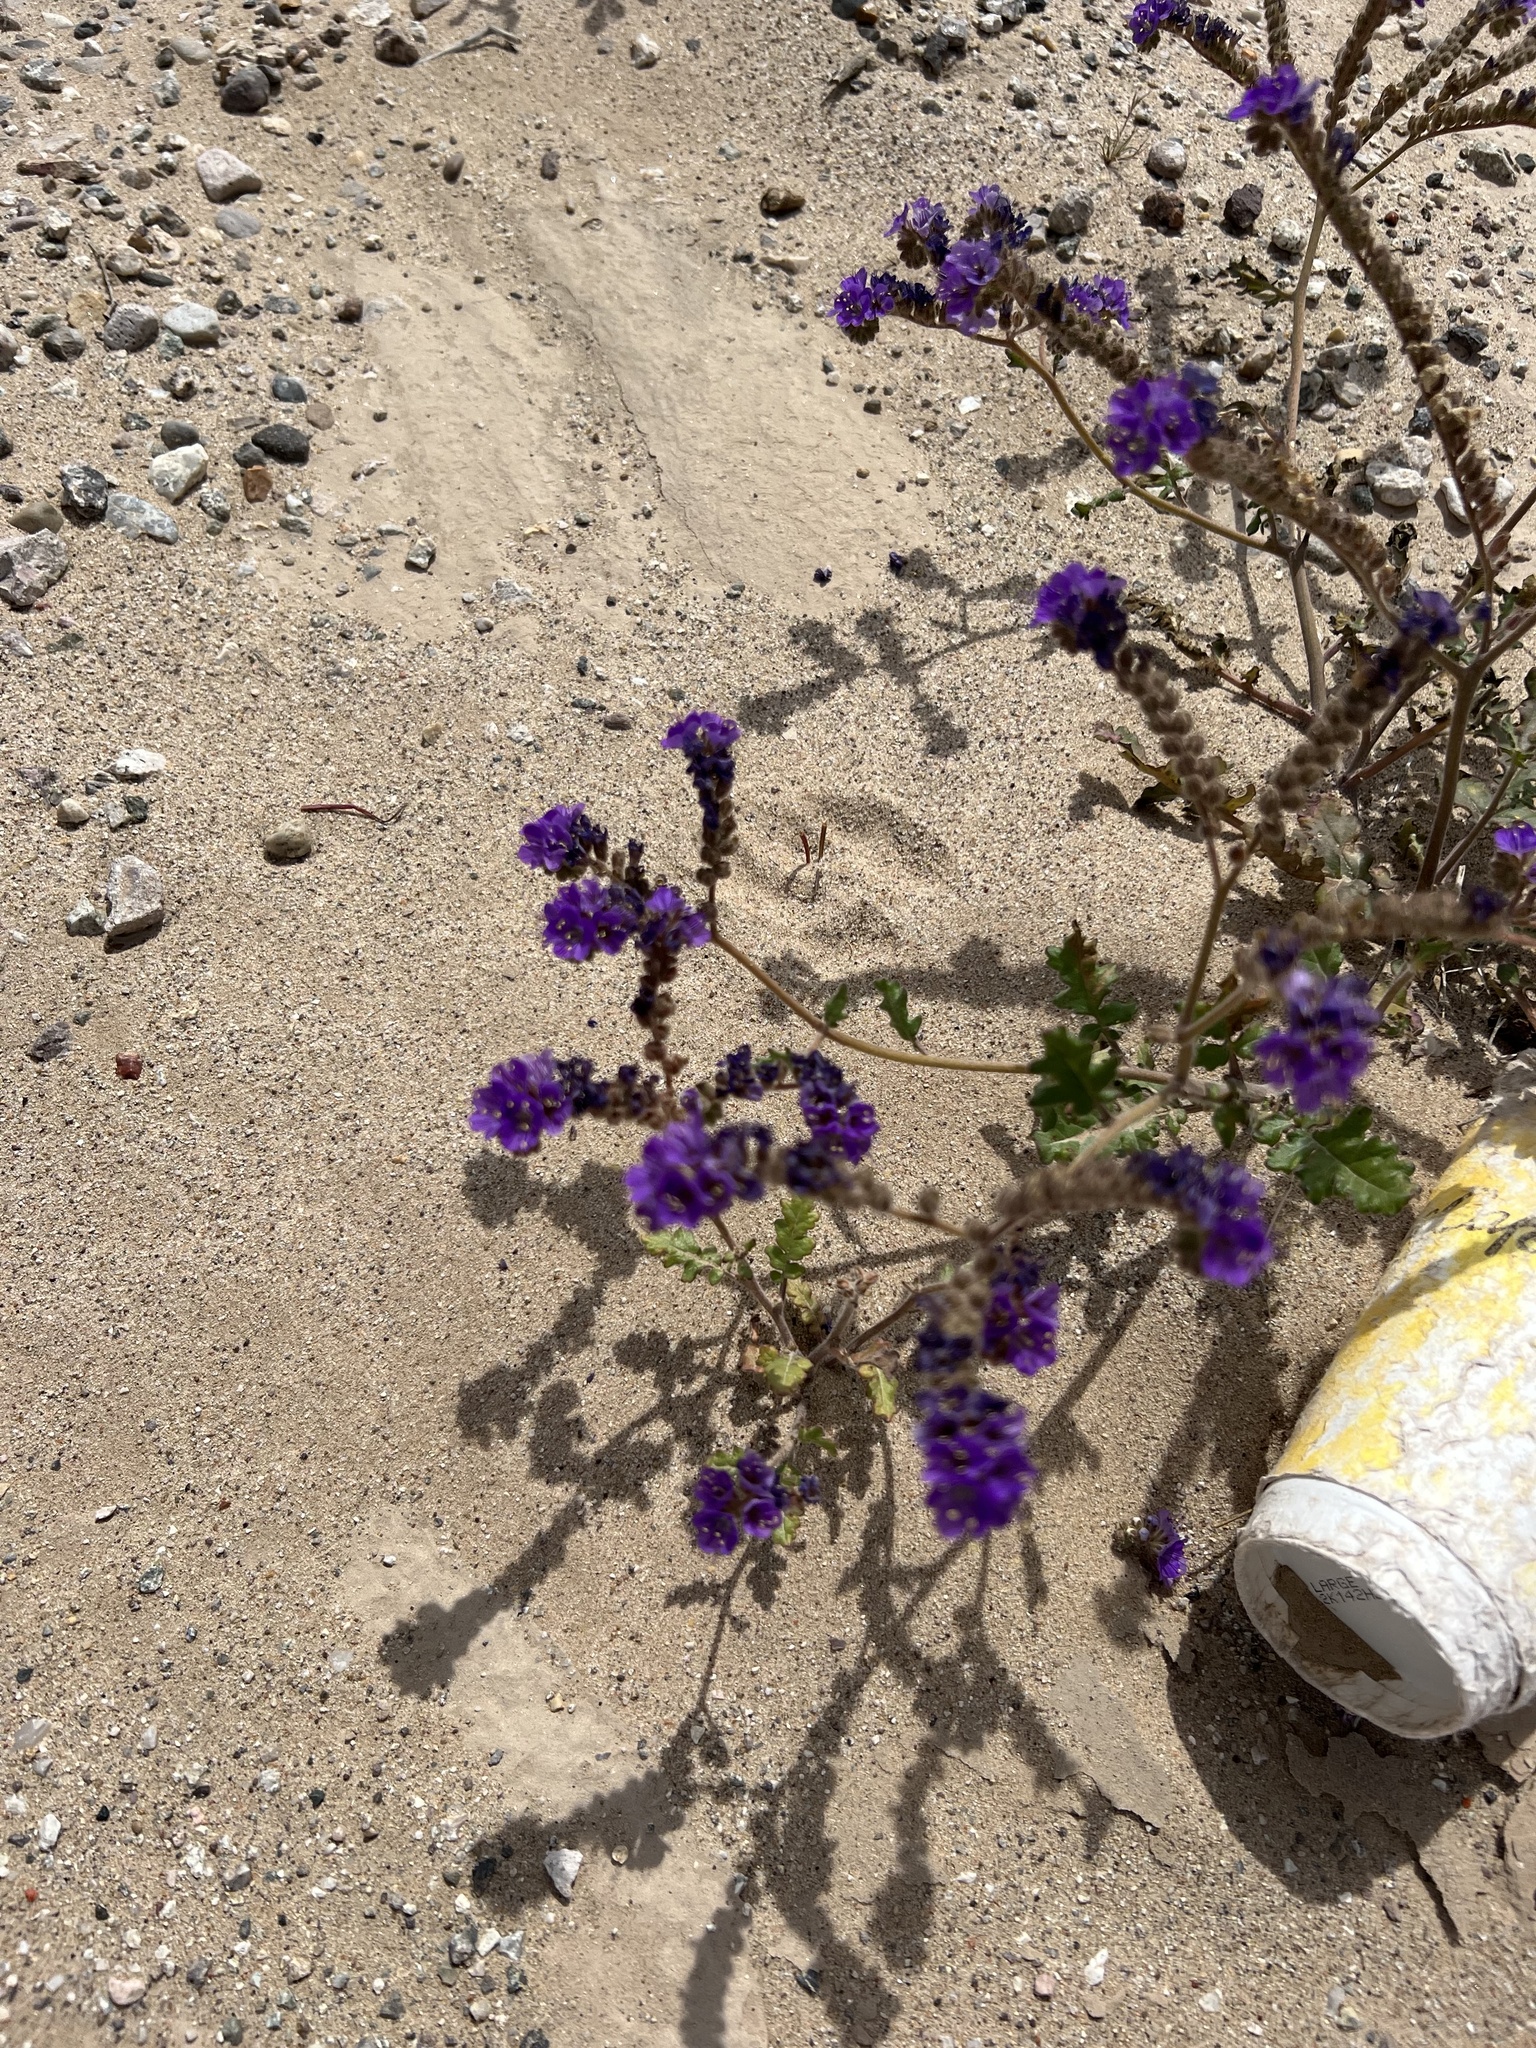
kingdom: Plantae
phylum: Tracheophyta
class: Magnoliopsida
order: Boraginales
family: Hydrophyllaceae
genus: Phacelia
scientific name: Phacelia crenulata
